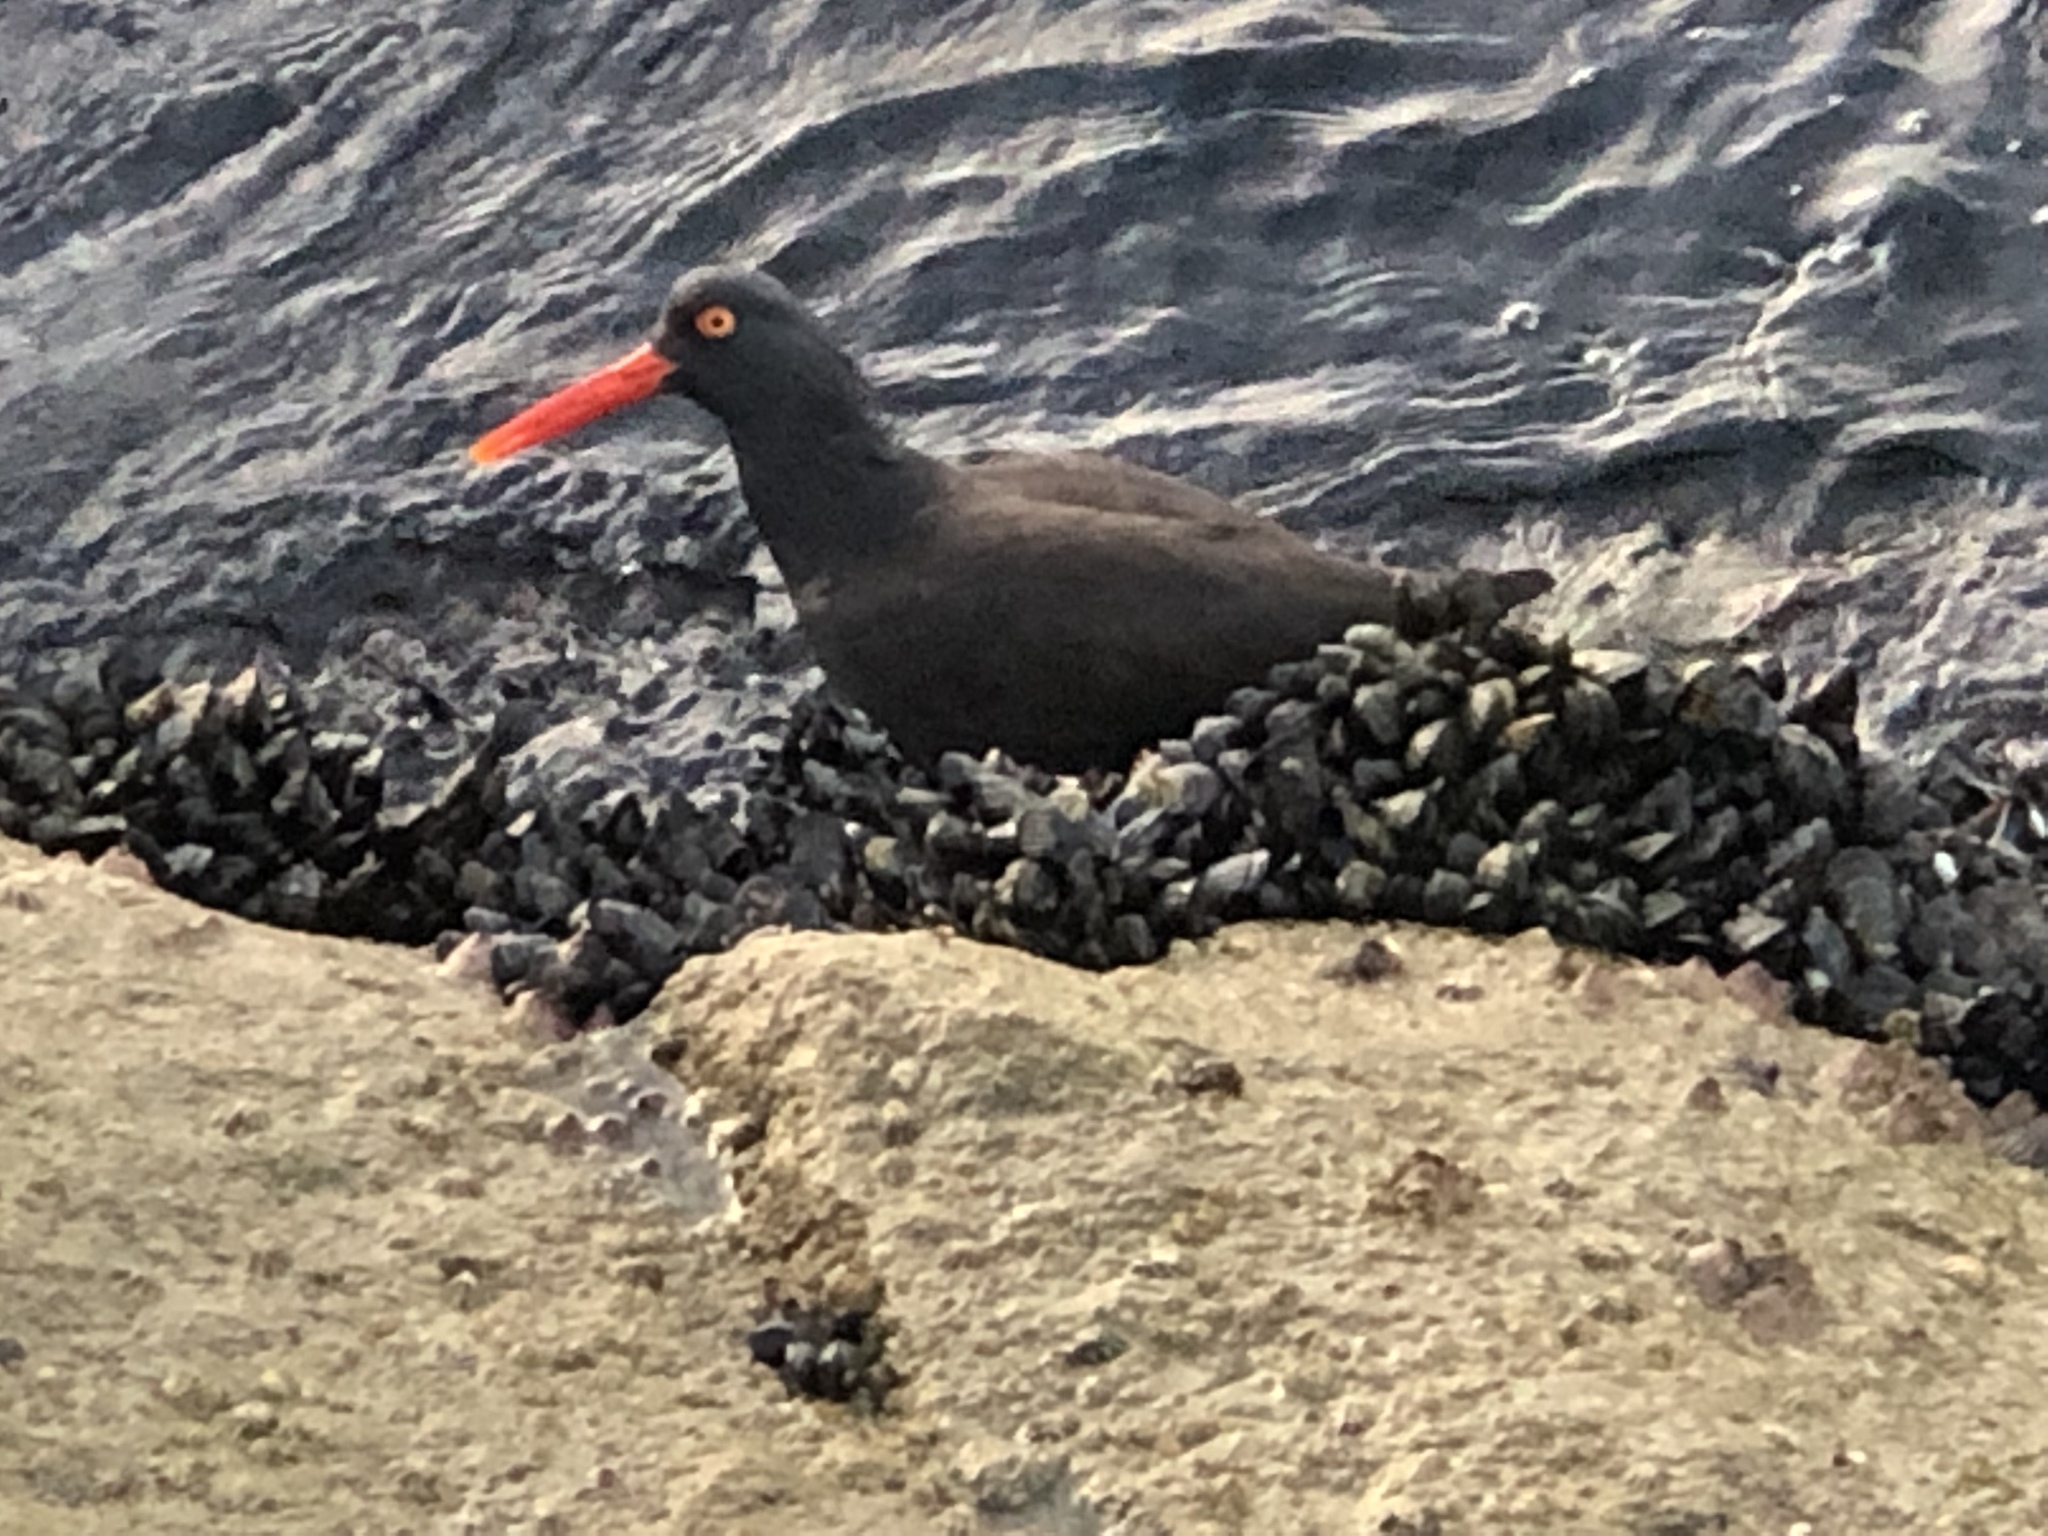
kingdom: Animalia
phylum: Chordata
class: Aves
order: Charadriiformes
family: Haematopodidae
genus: Haematopus
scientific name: Haematopus bachmani
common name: Black oystercatcher
